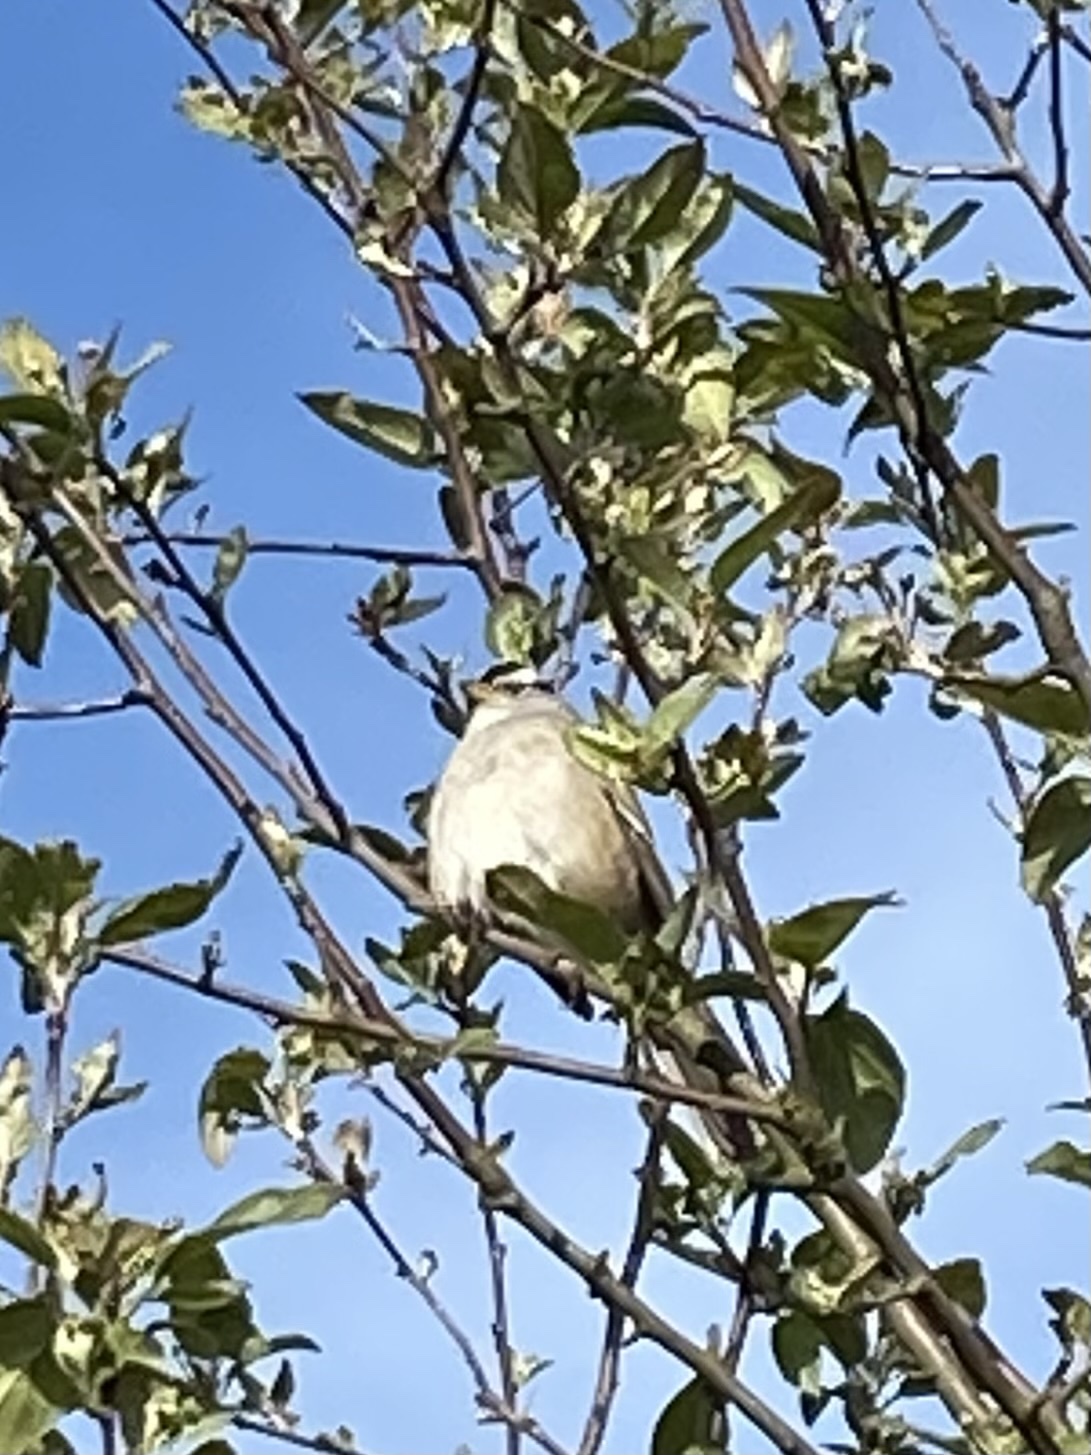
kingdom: Animalia
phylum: Chordata
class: Aves
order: Passeriformes
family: Passerellidae
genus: Zonotrichia
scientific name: Zonotrichia leucophrys
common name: White-crowned sparrow
